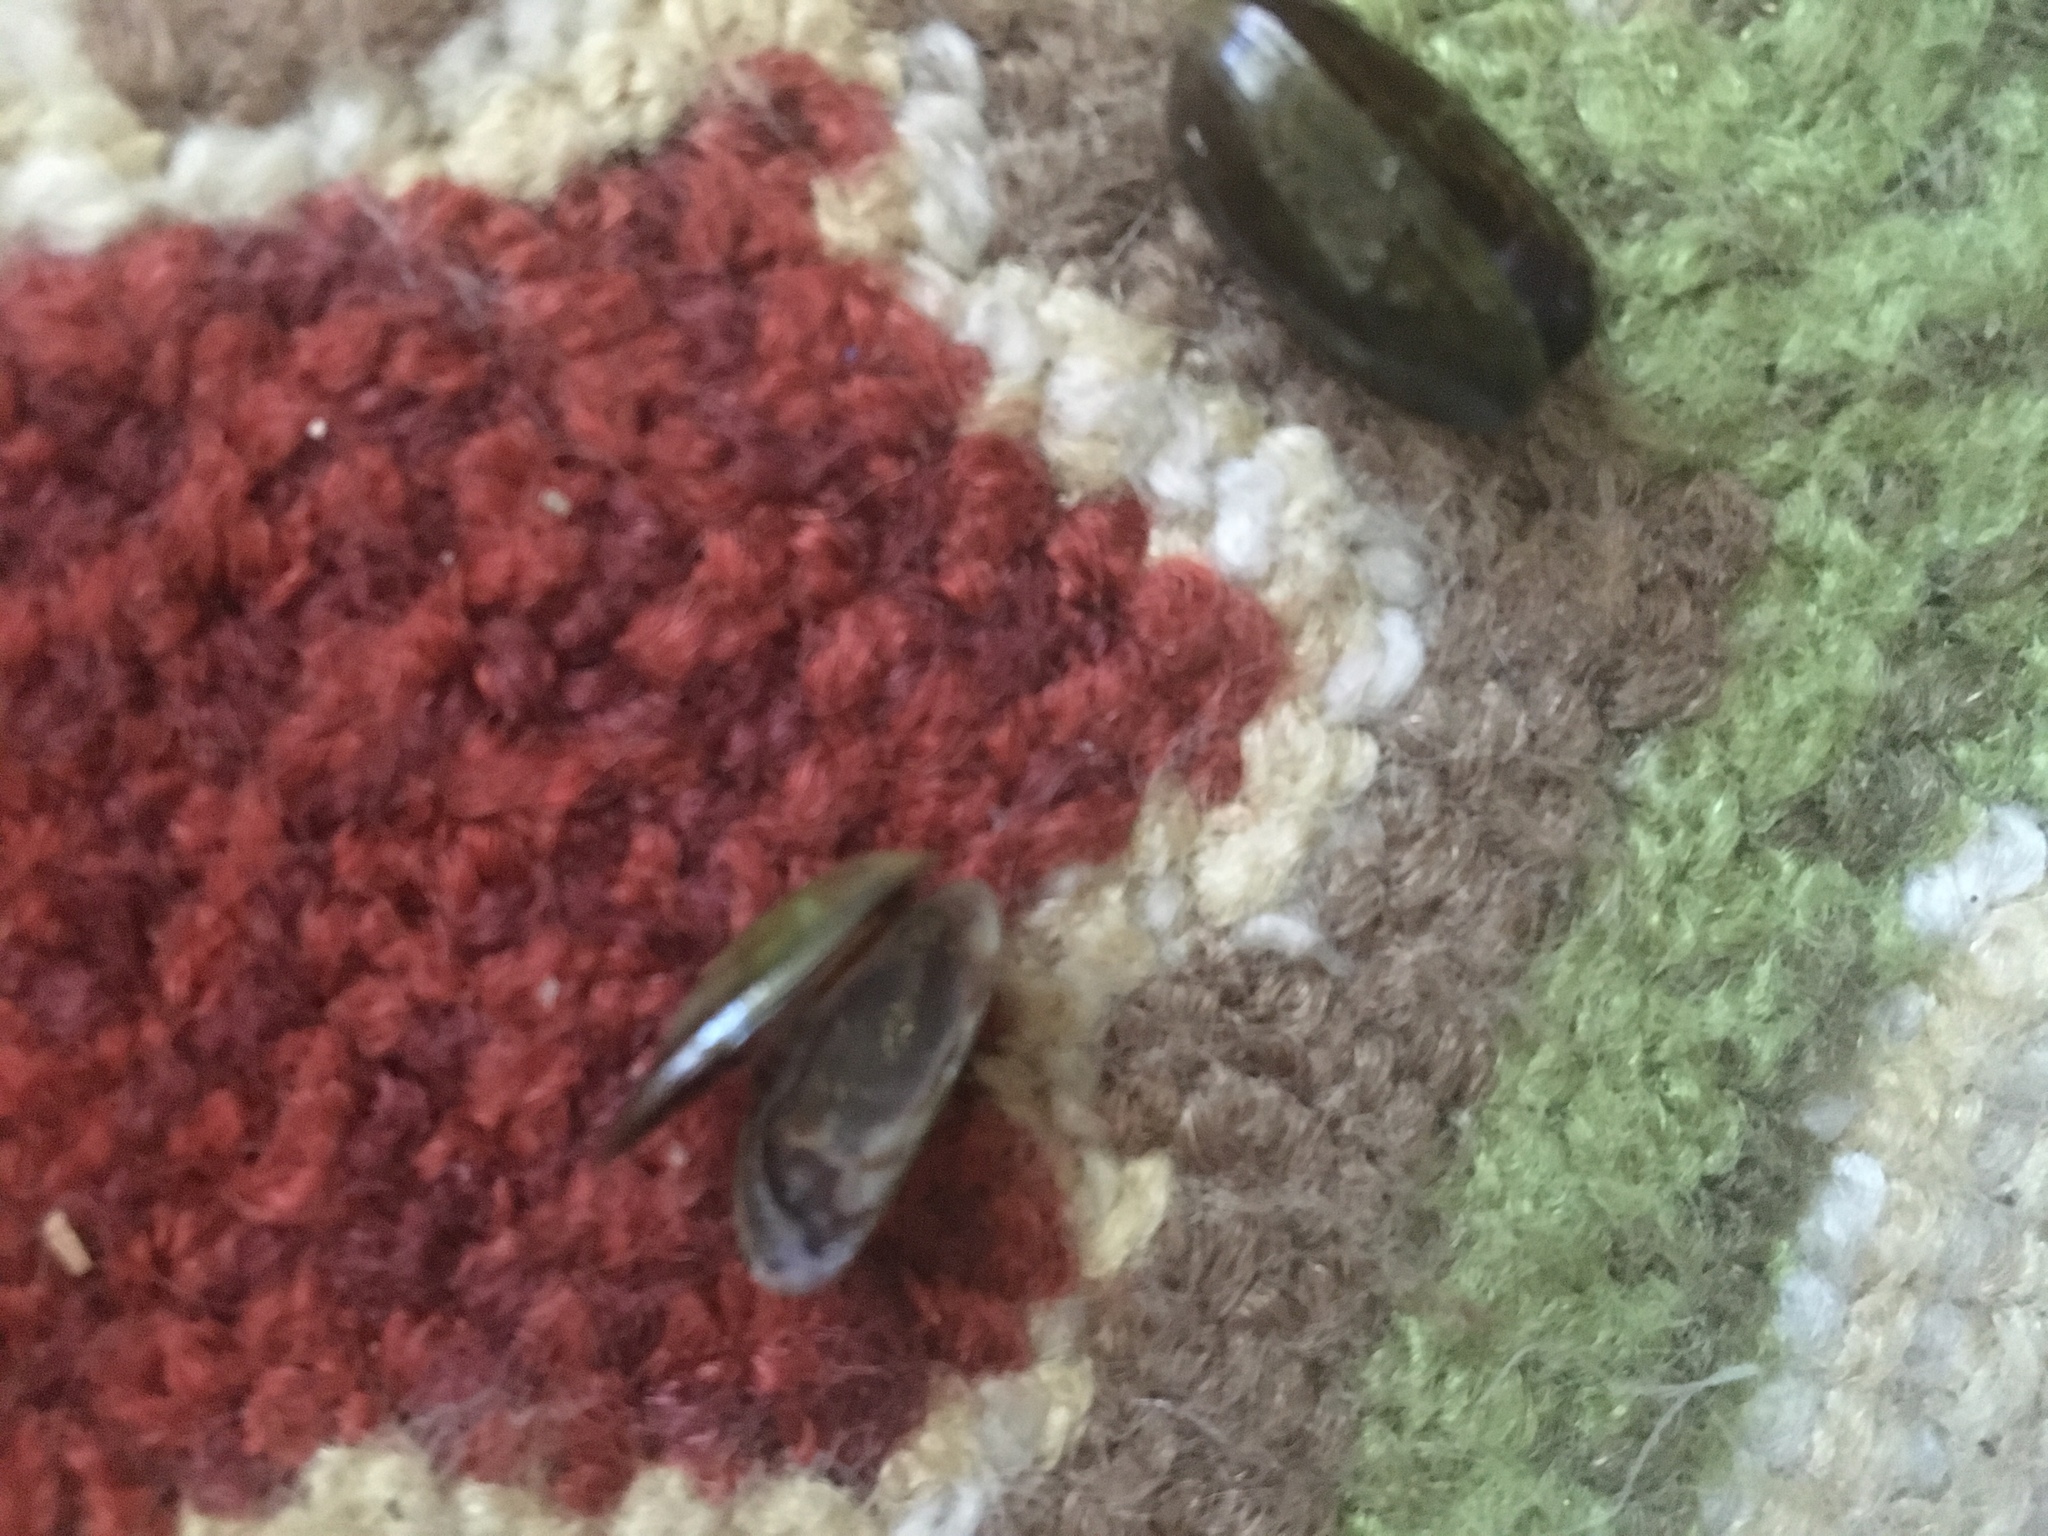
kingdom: Animalia
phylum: Mollusca
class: Bivalvia
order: Mytilida
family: Mytilidae
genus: Arcuatula
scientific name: Arcuatula senhousia
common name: Asian mussel
